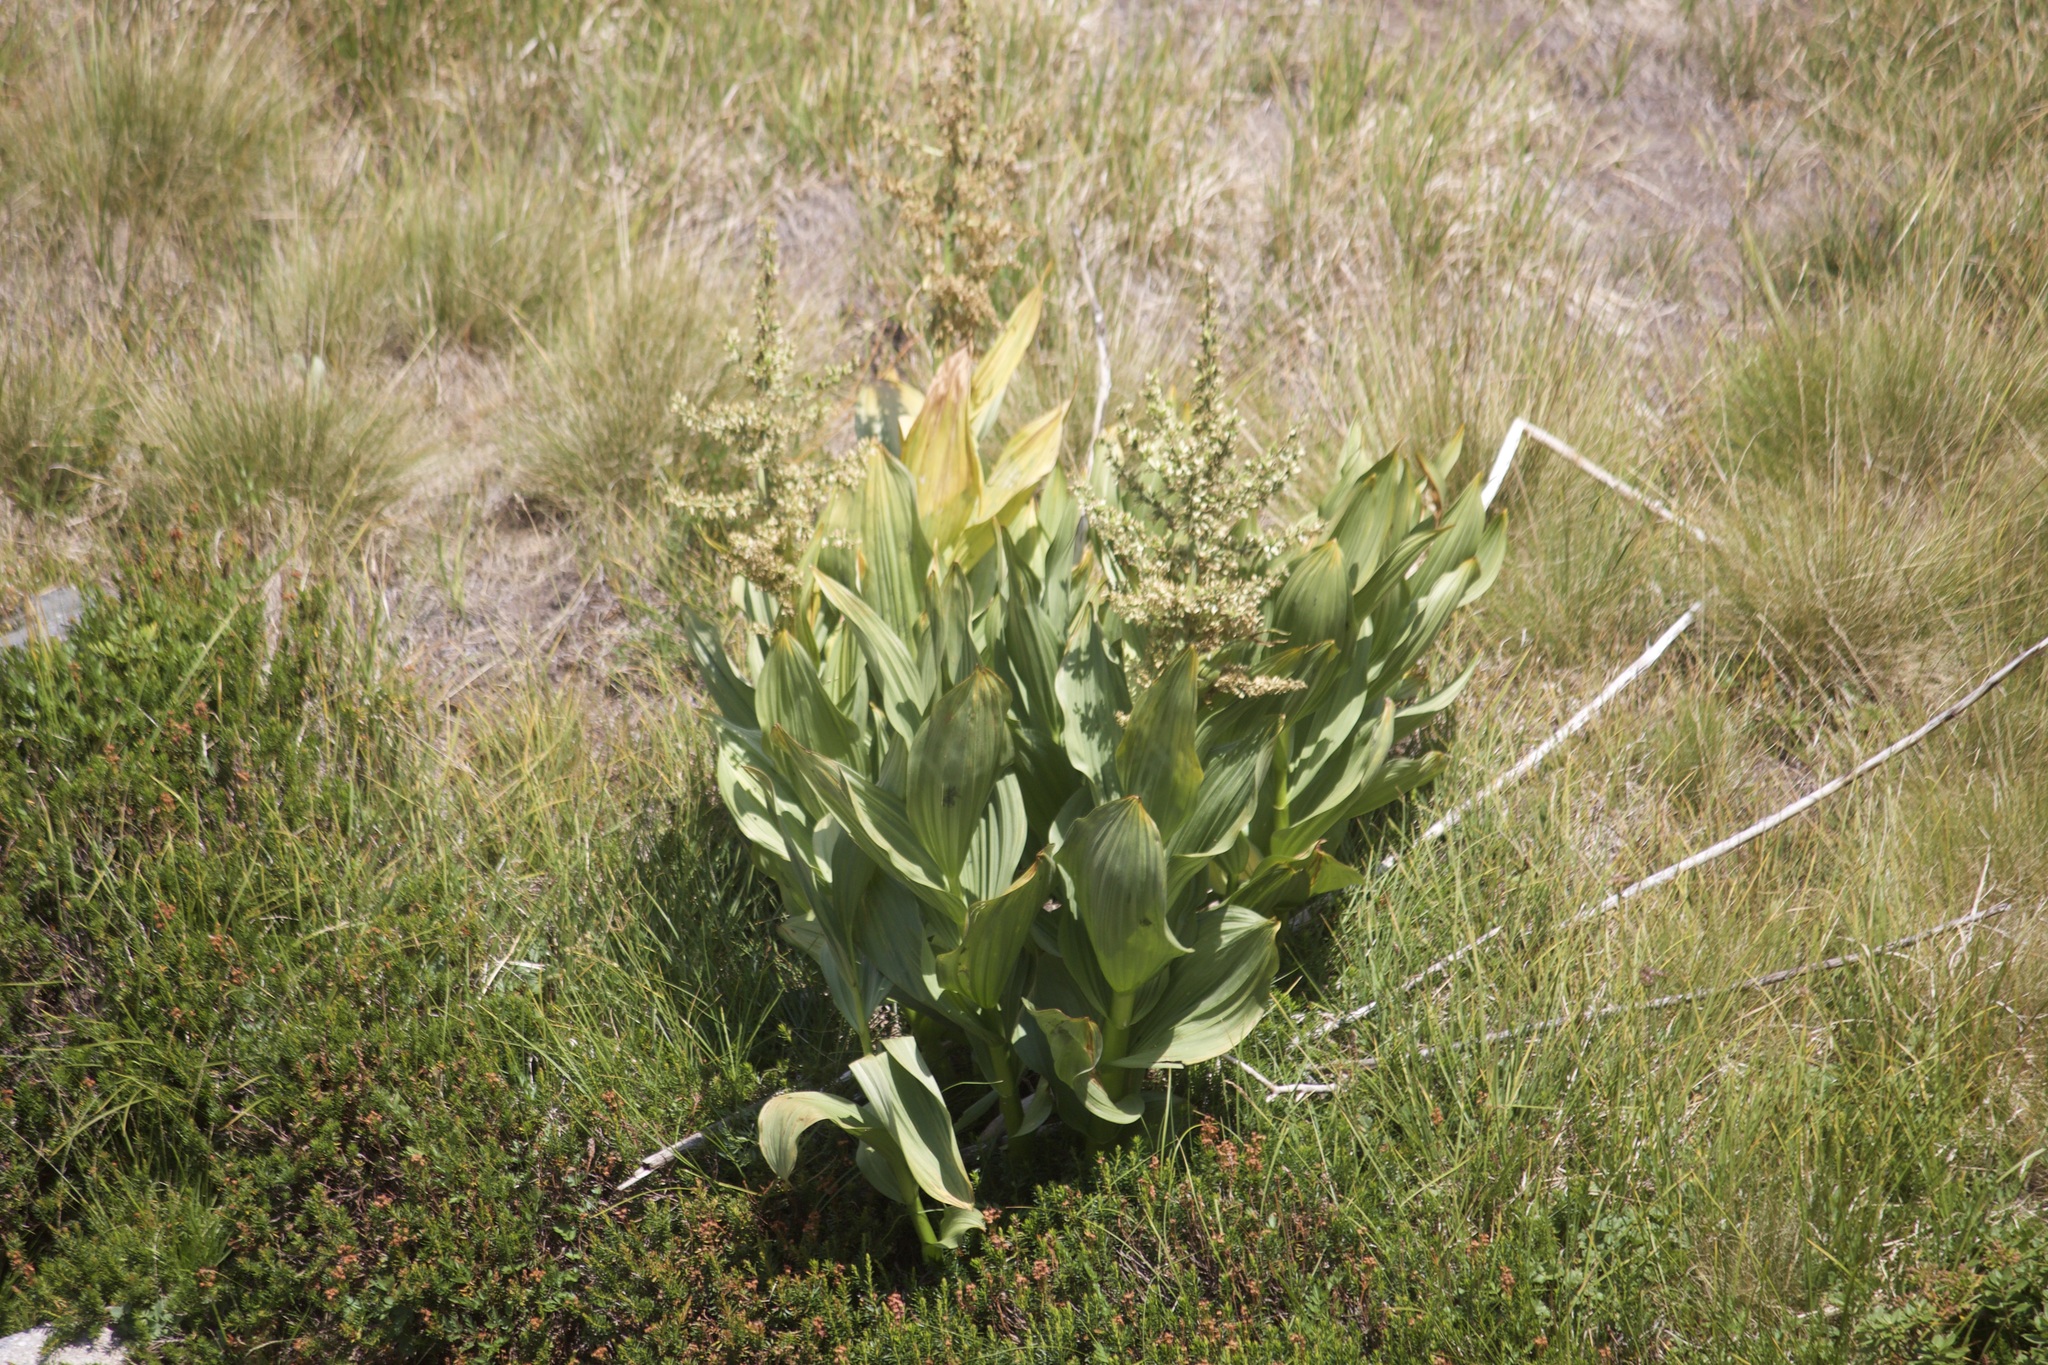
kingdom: Plantae
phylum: Tracheophyta
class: Liliopsida
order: Liliales
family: Melanthiaceae
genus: Veratrum
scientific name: Veratrum californicum
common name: California veratrum
